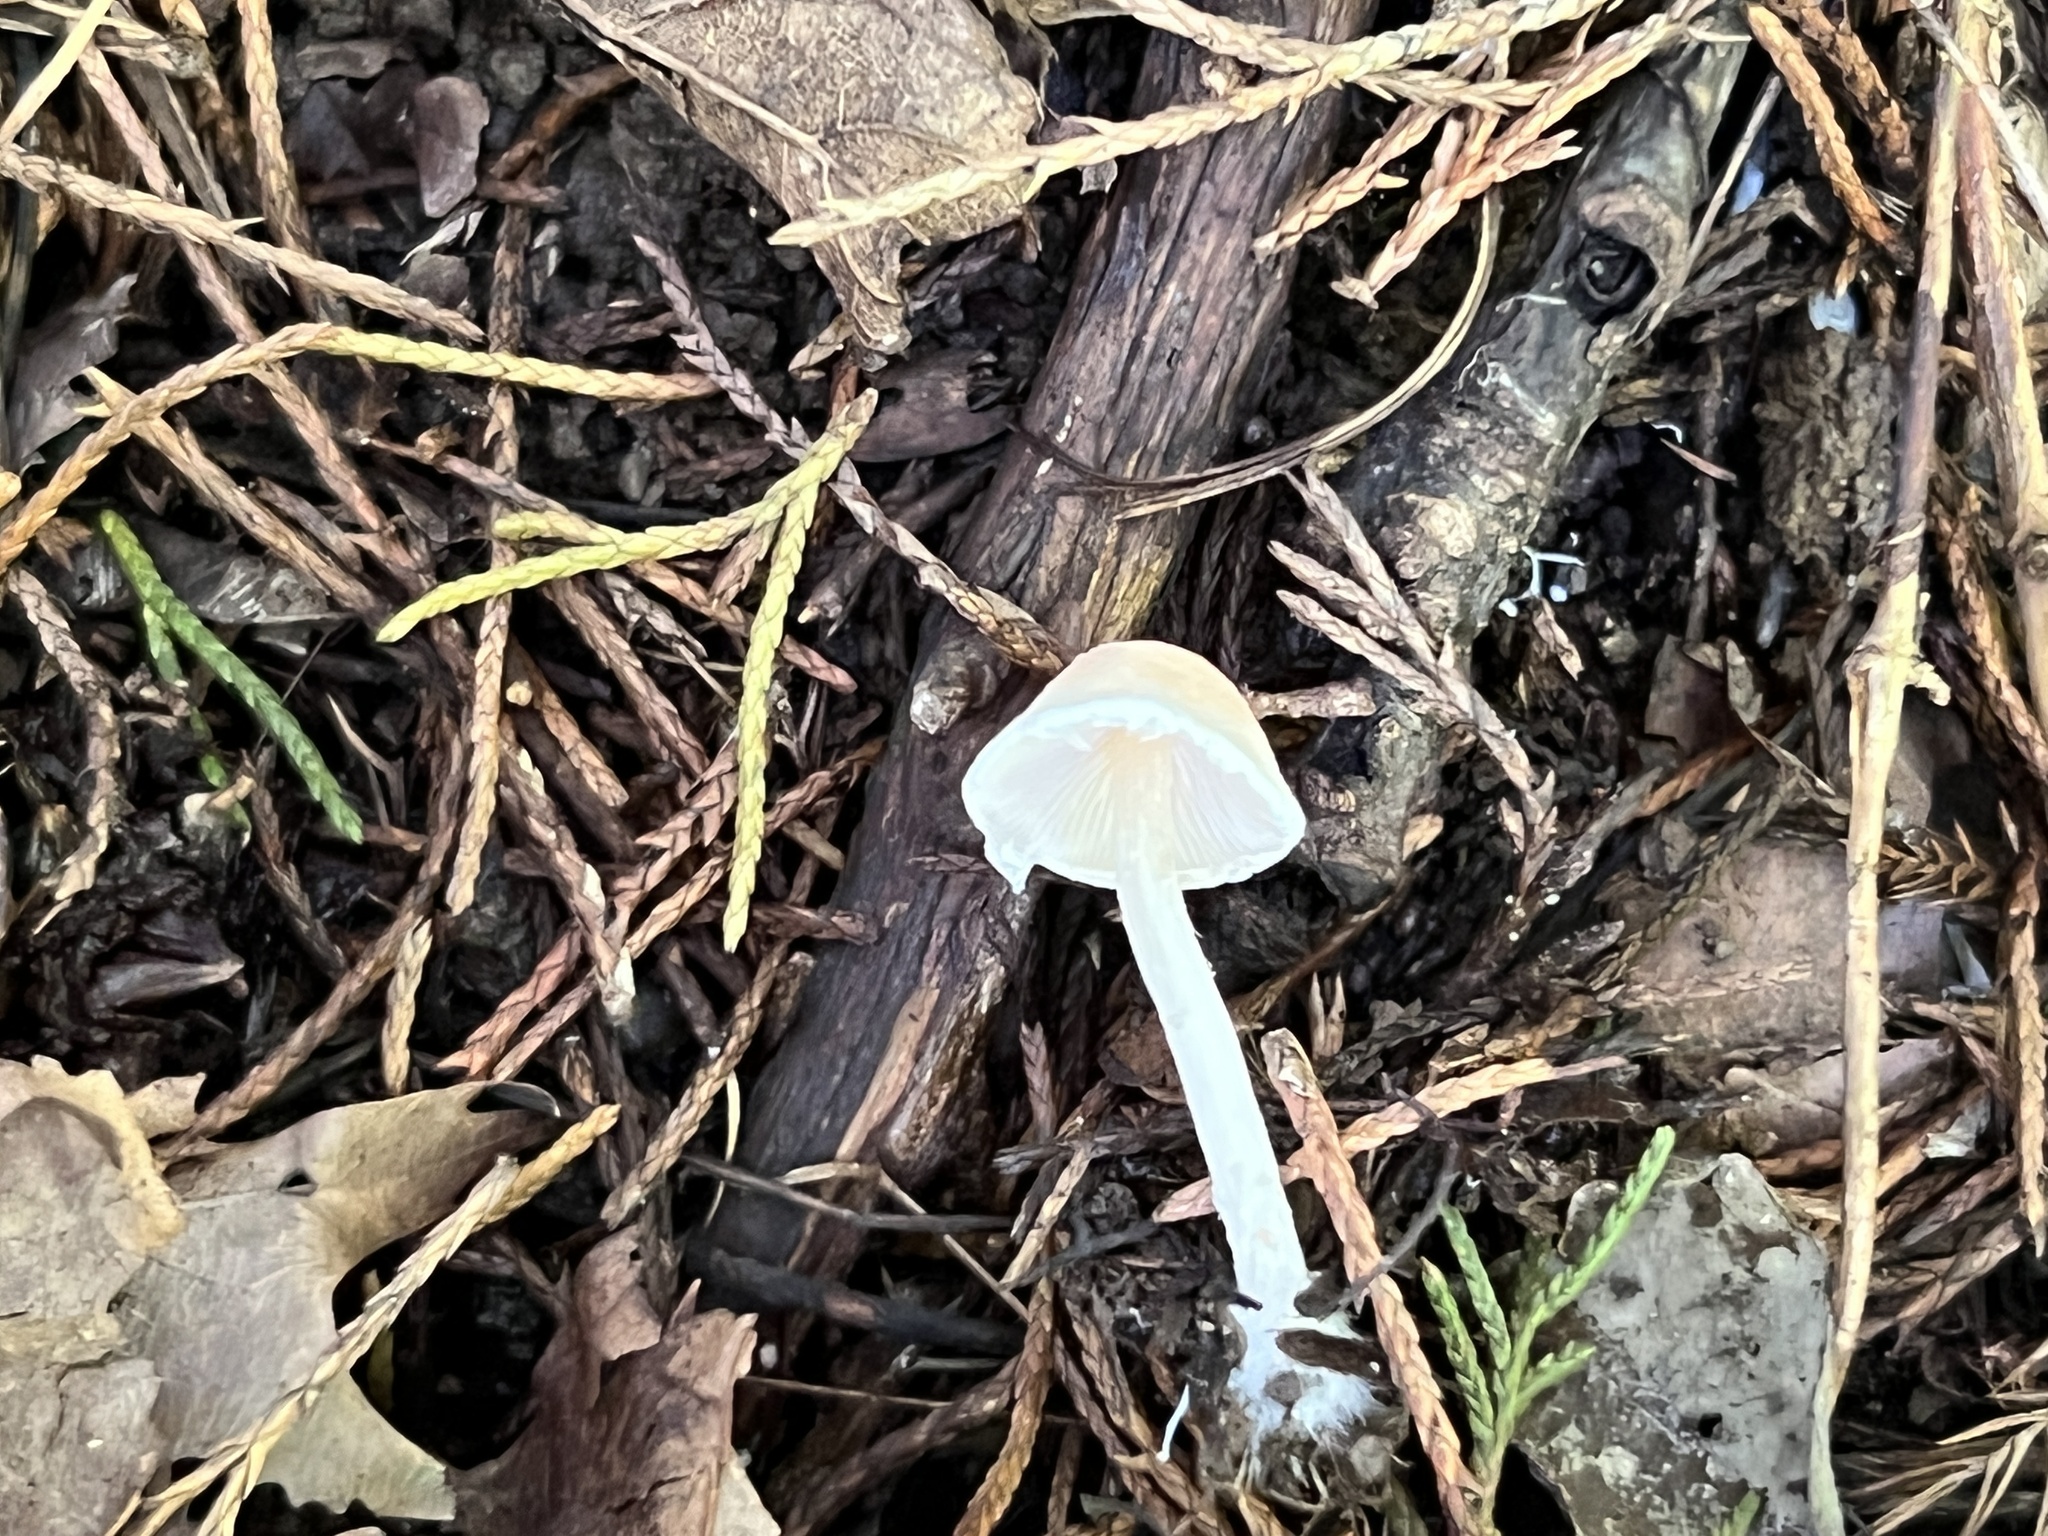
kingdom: Fungi
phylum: Basidiomycota
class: Agaricomycetes
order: Agaricales
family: Agaricaceae
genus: Lepiota
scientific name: Lepiota apatelia
